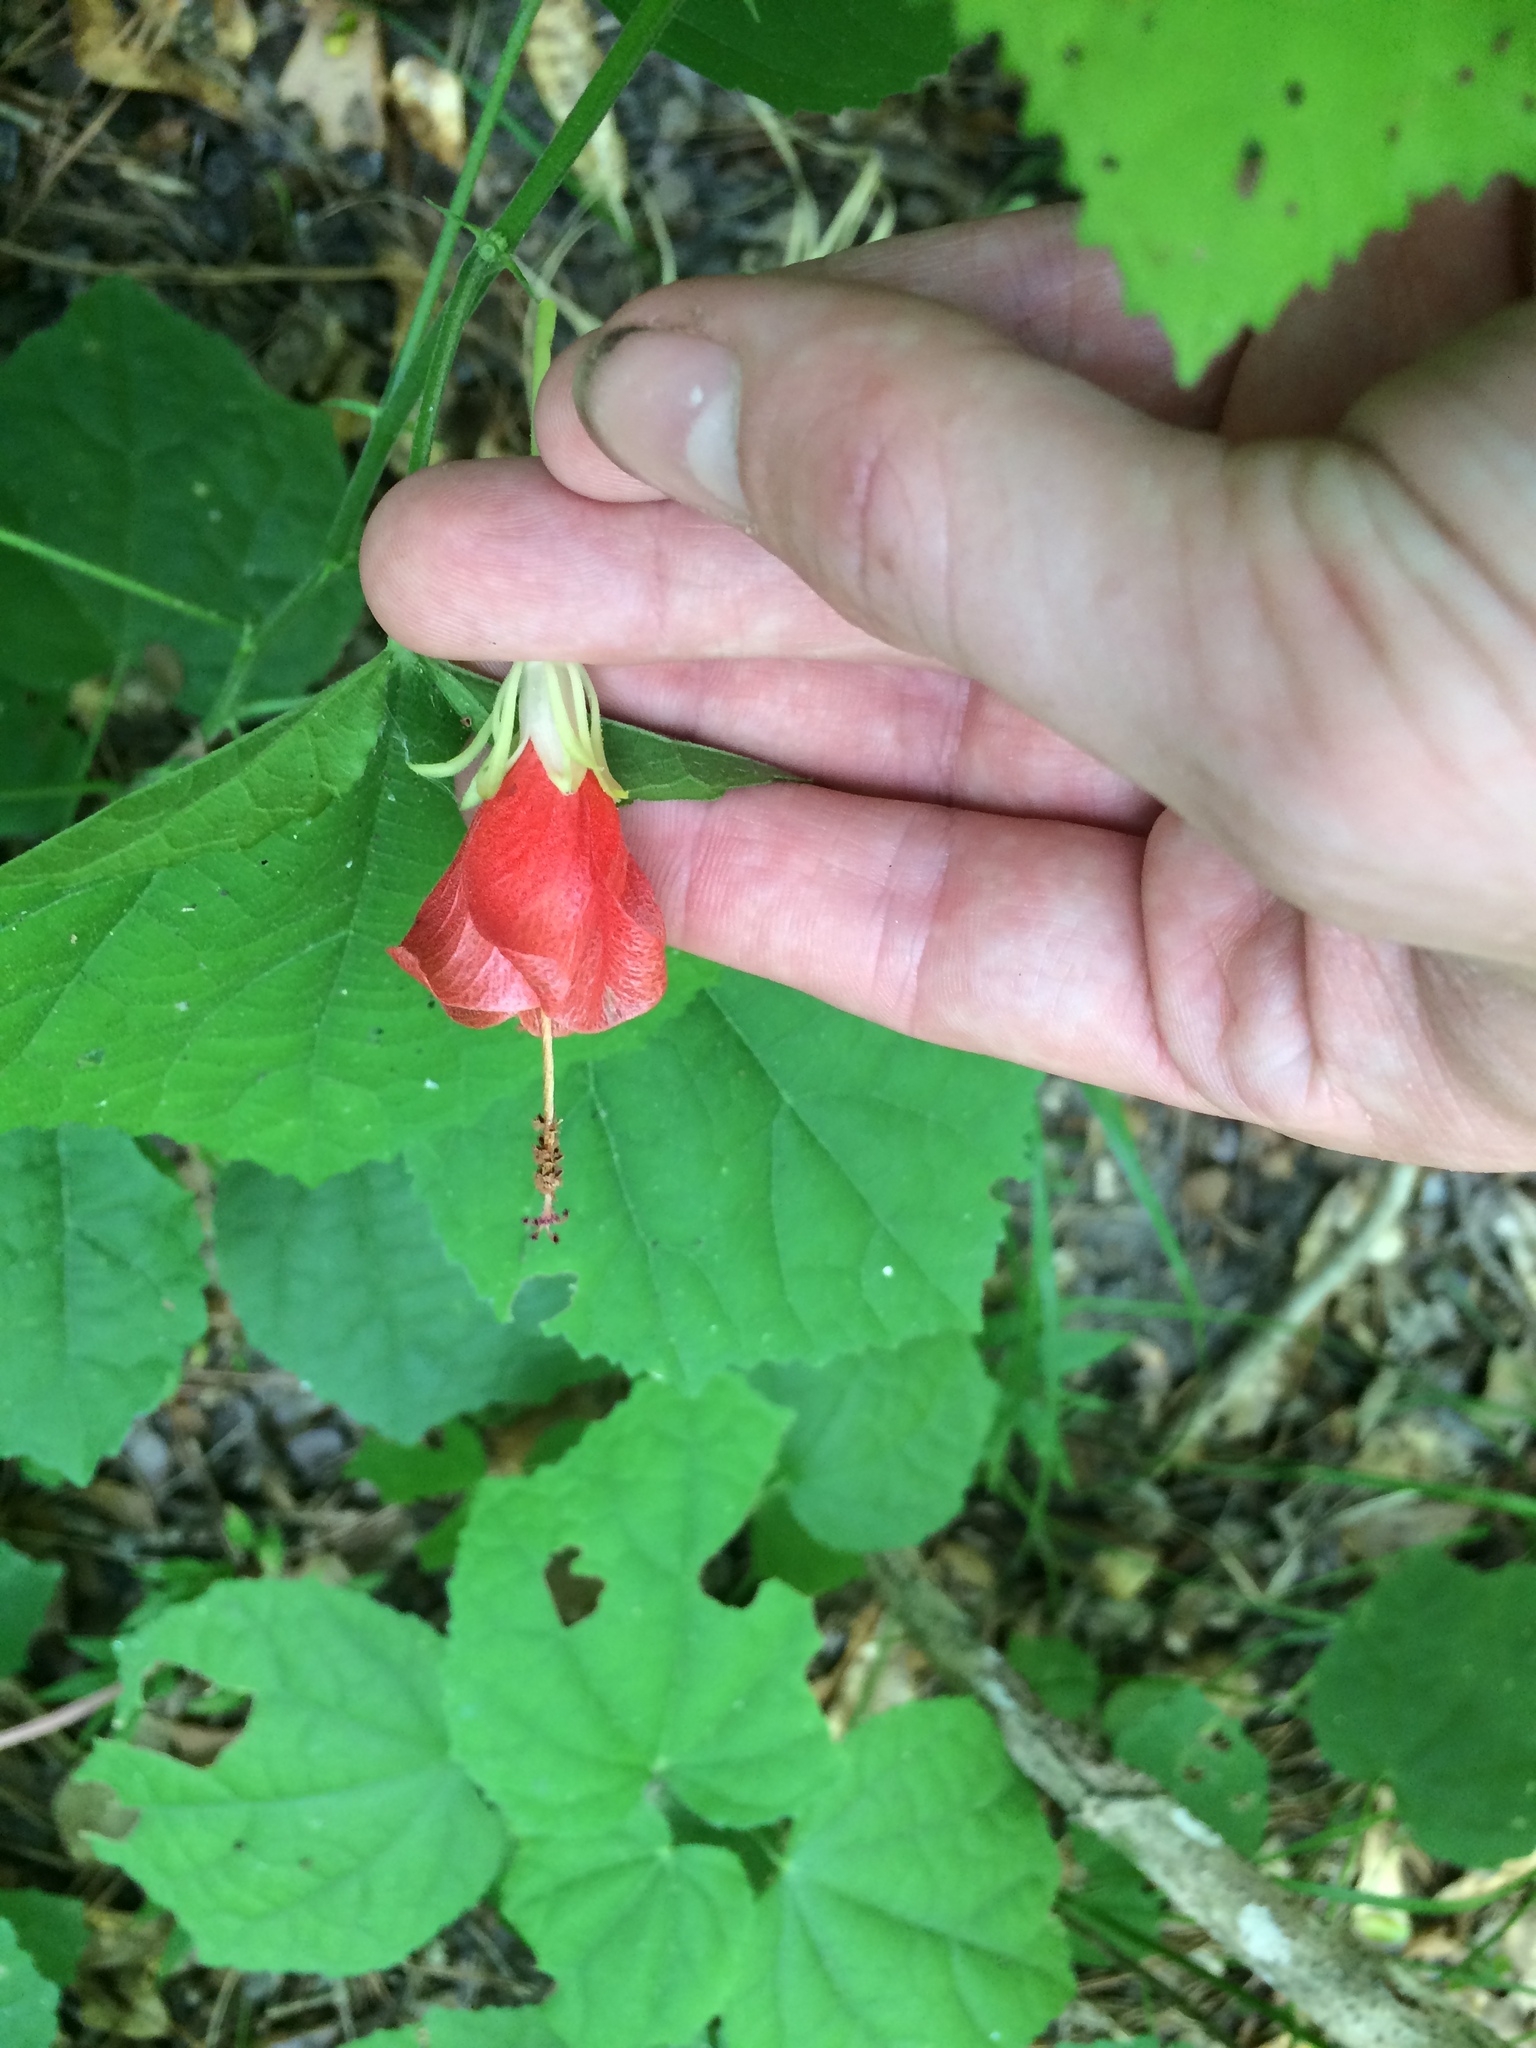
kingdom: Plantae
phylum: Tracheophyta
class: Magnoliopsida
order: Malvales
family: Malvaceae
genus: Malvaviscus
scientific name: Malvaviscus arboreus
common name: Wax mallow
